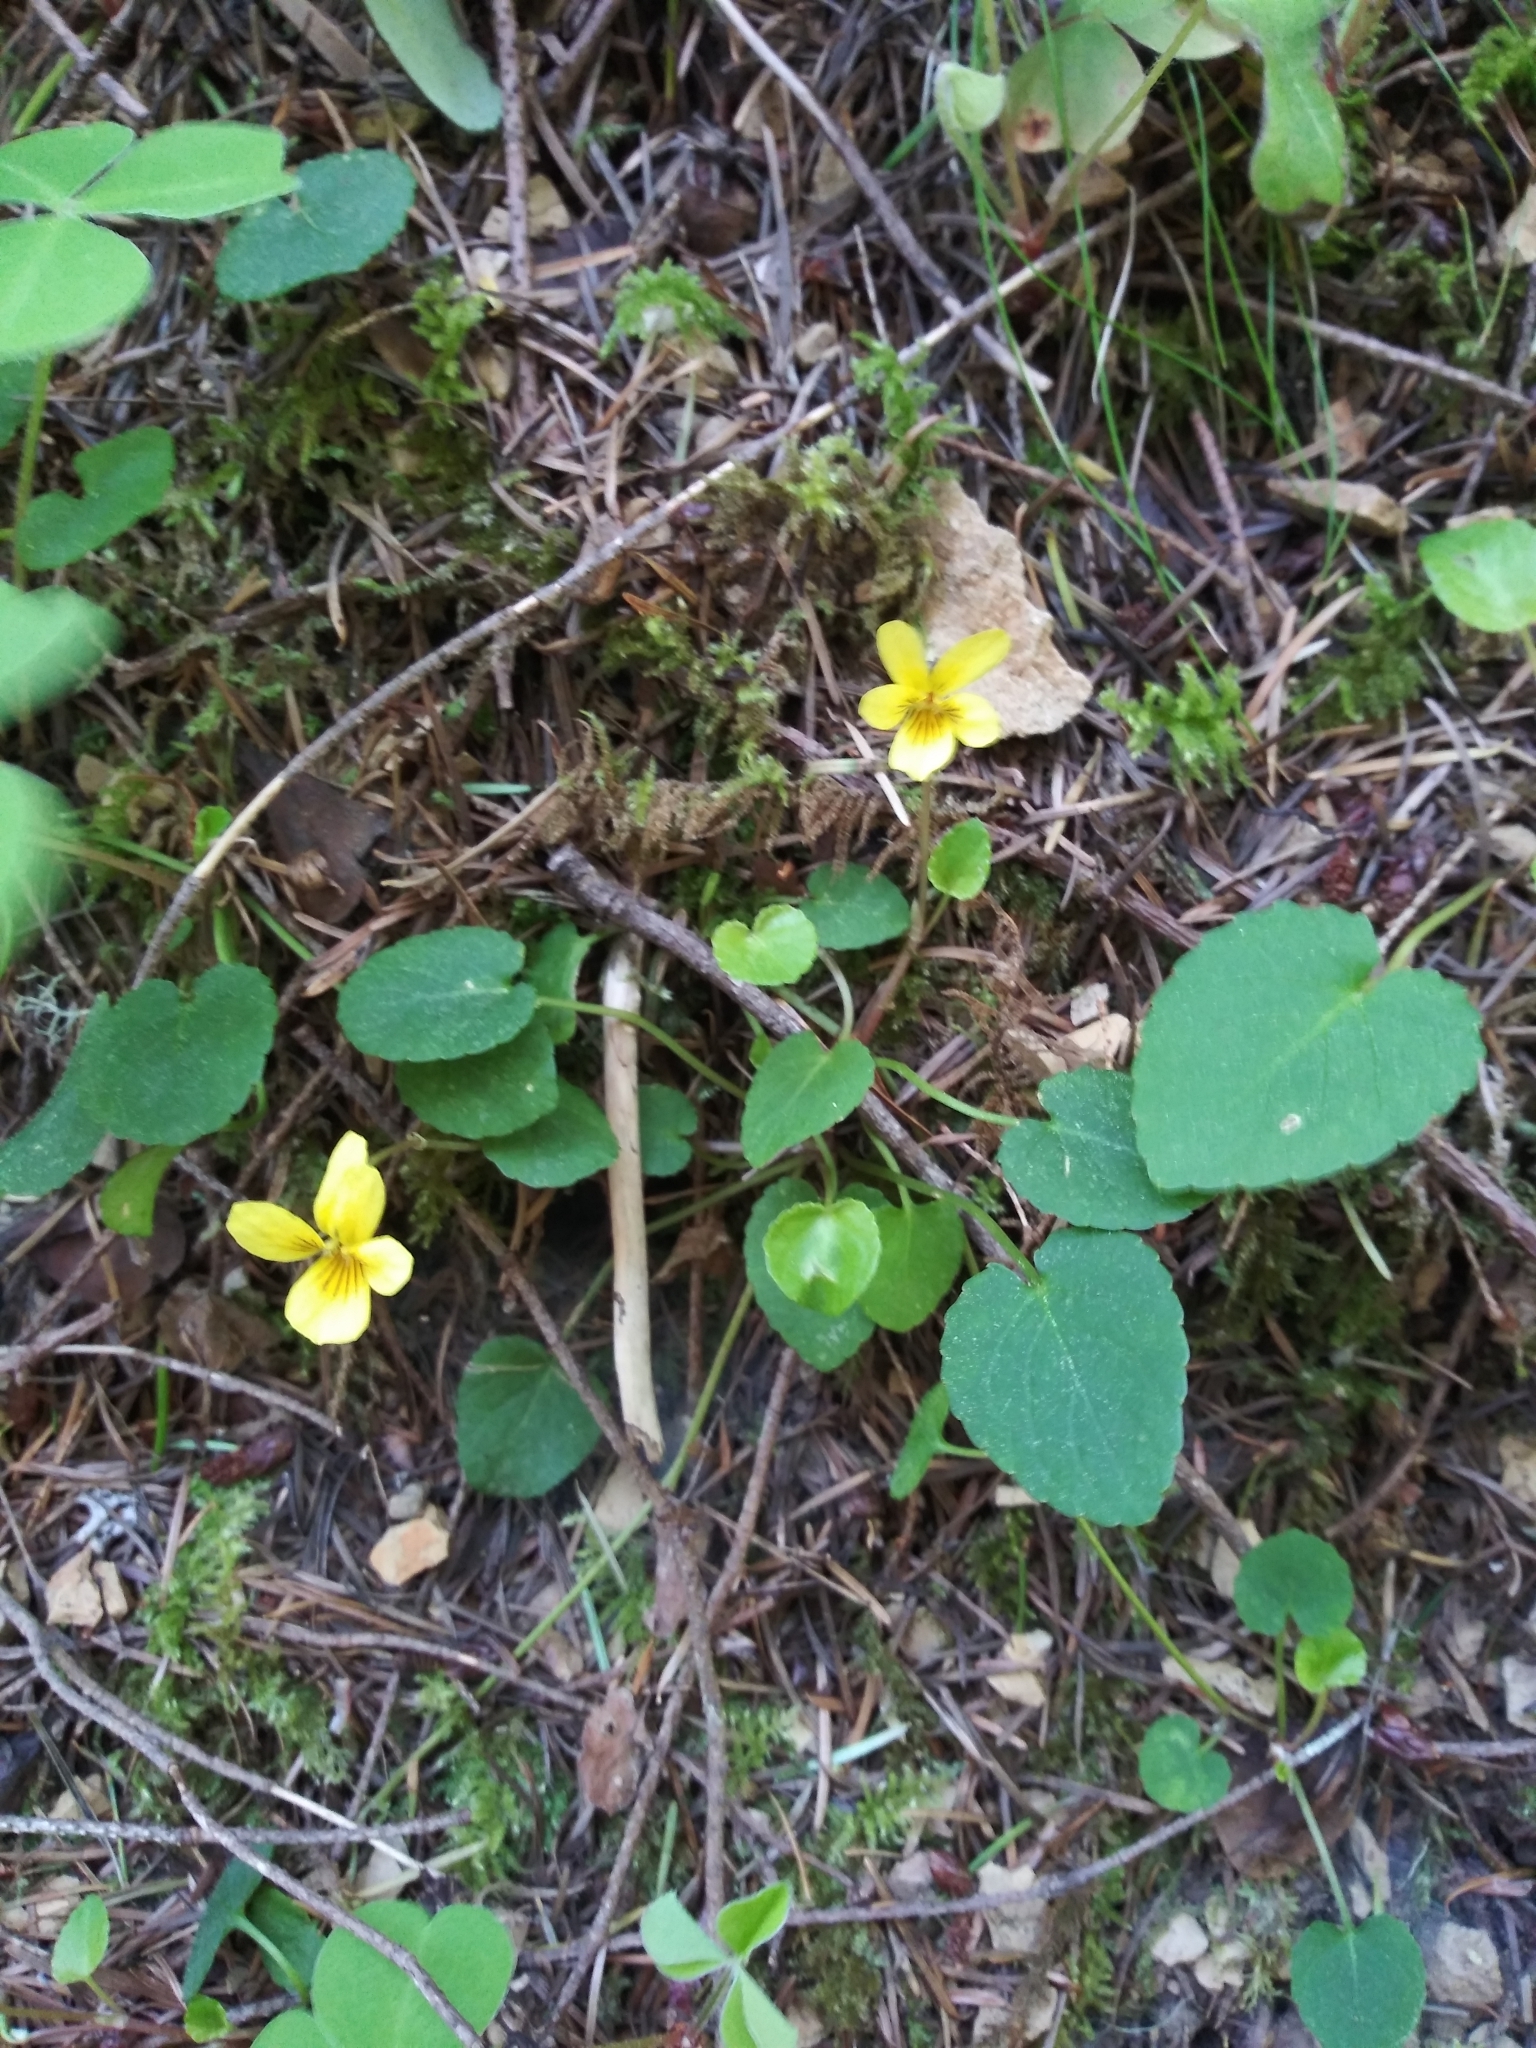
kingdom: Plantae
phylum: Tracheophyta
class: Magnoliopsida
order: Malpighiales
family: Violaceae
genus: Viola
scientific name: Viola sempervirens
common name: Evergreen violet
